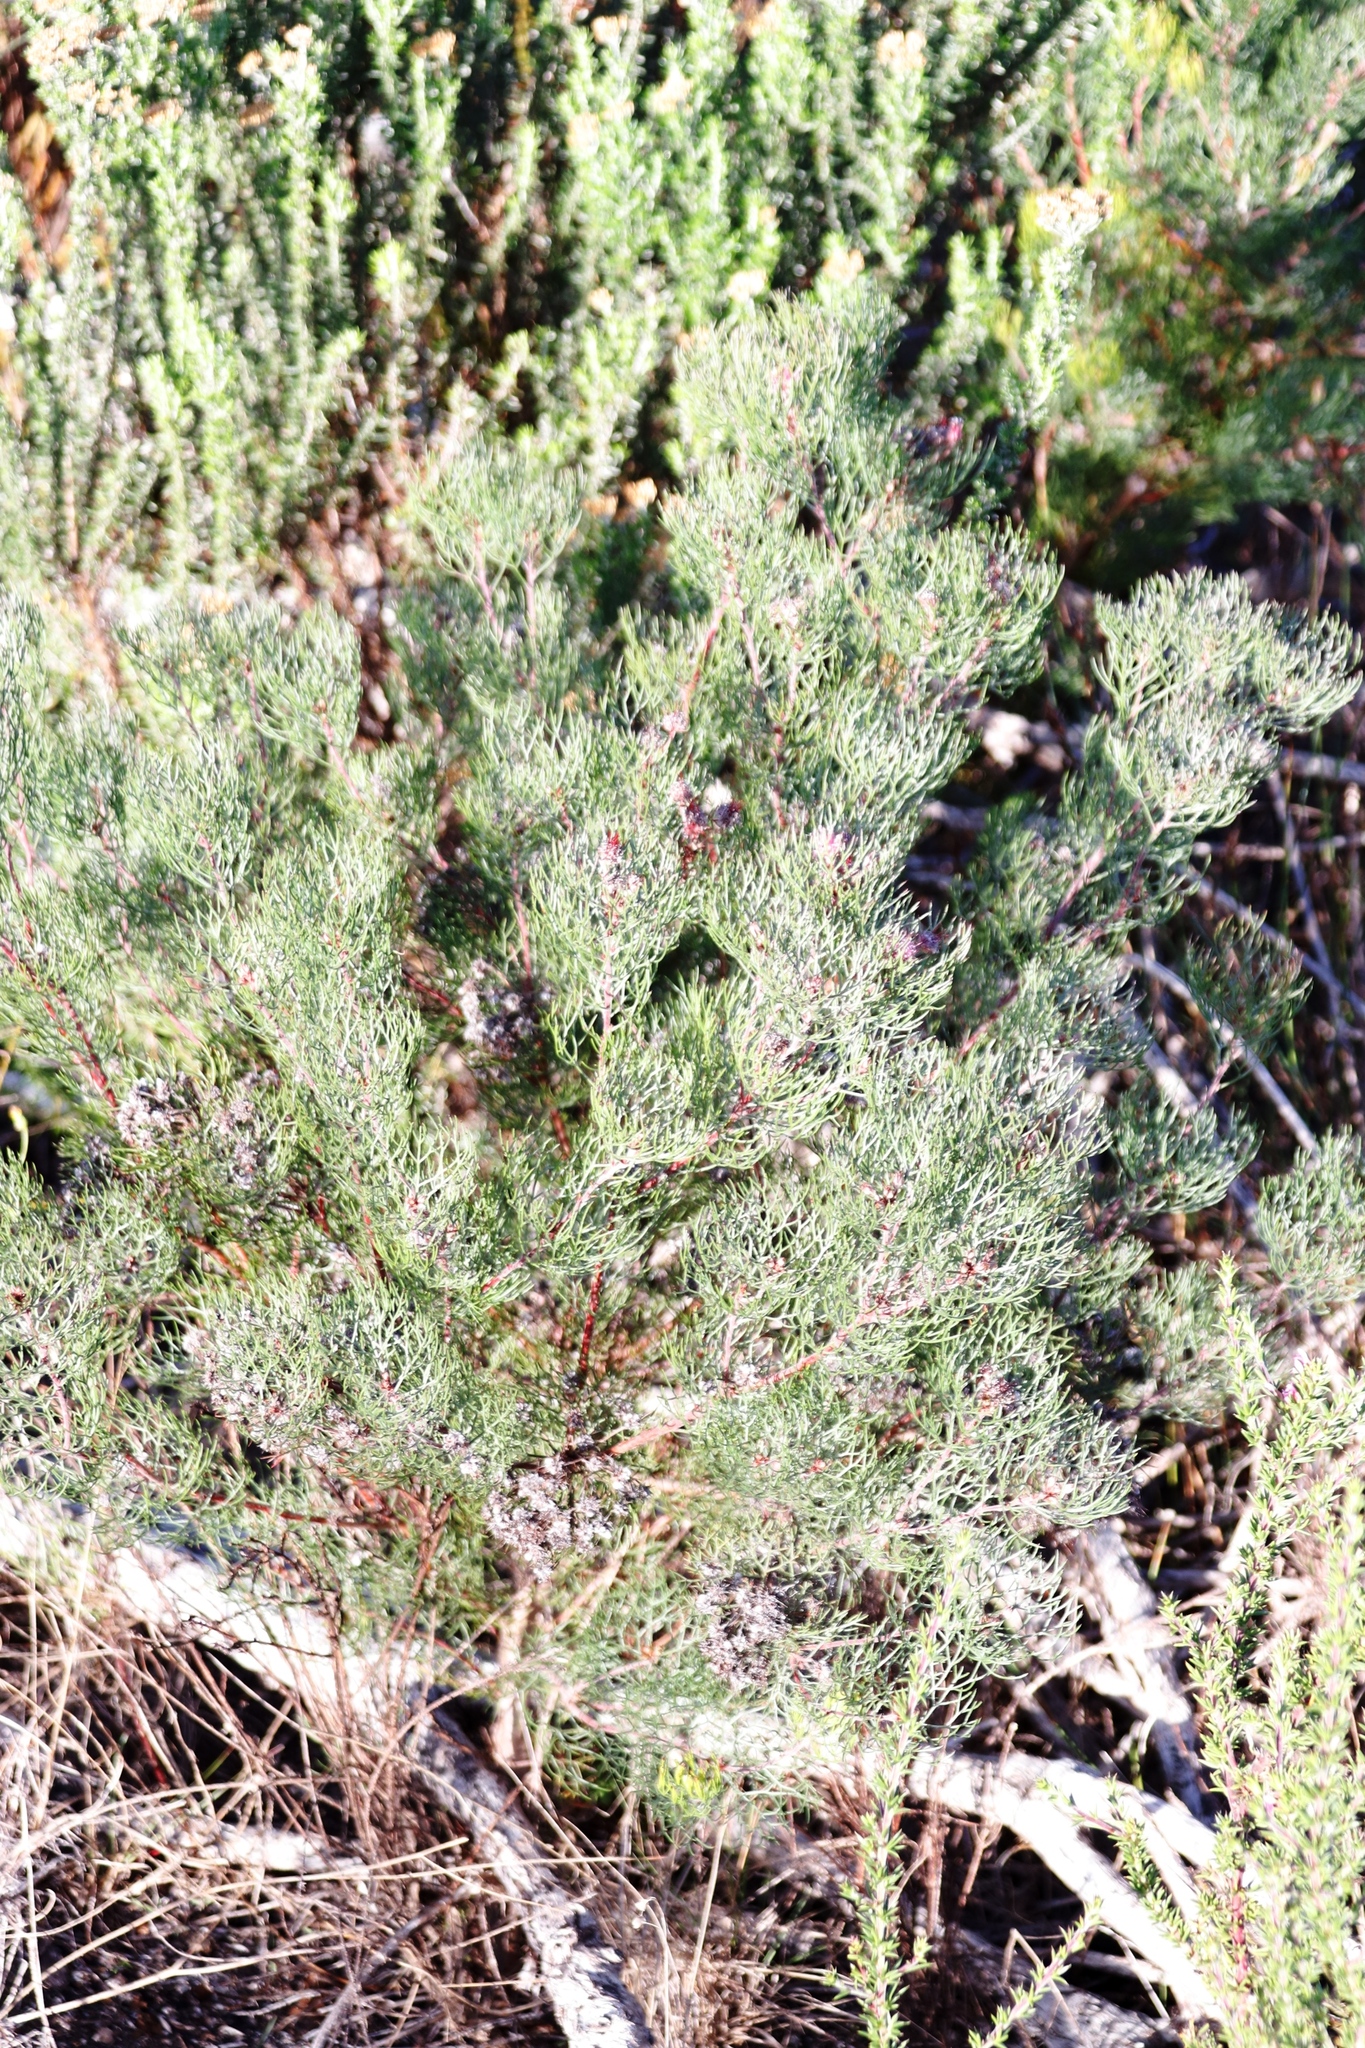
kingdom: Plantae
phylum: Tracheophyta
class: Magnoliopsida
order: Proteales
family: Proteaceae
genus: Serruria
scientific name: Serruria fasciflora
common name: Common pin spiderhead
